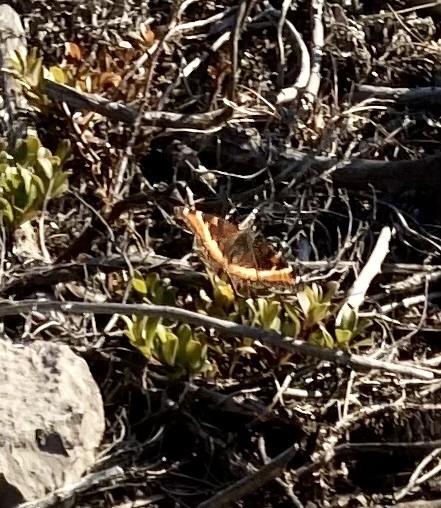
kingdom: Animalia
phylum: Arthropoda
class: Insecta
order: Lepidoptera
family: Nymphalidae
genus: Aglais
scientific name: Aglais milberti
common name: Milbert's tortoiseshell
